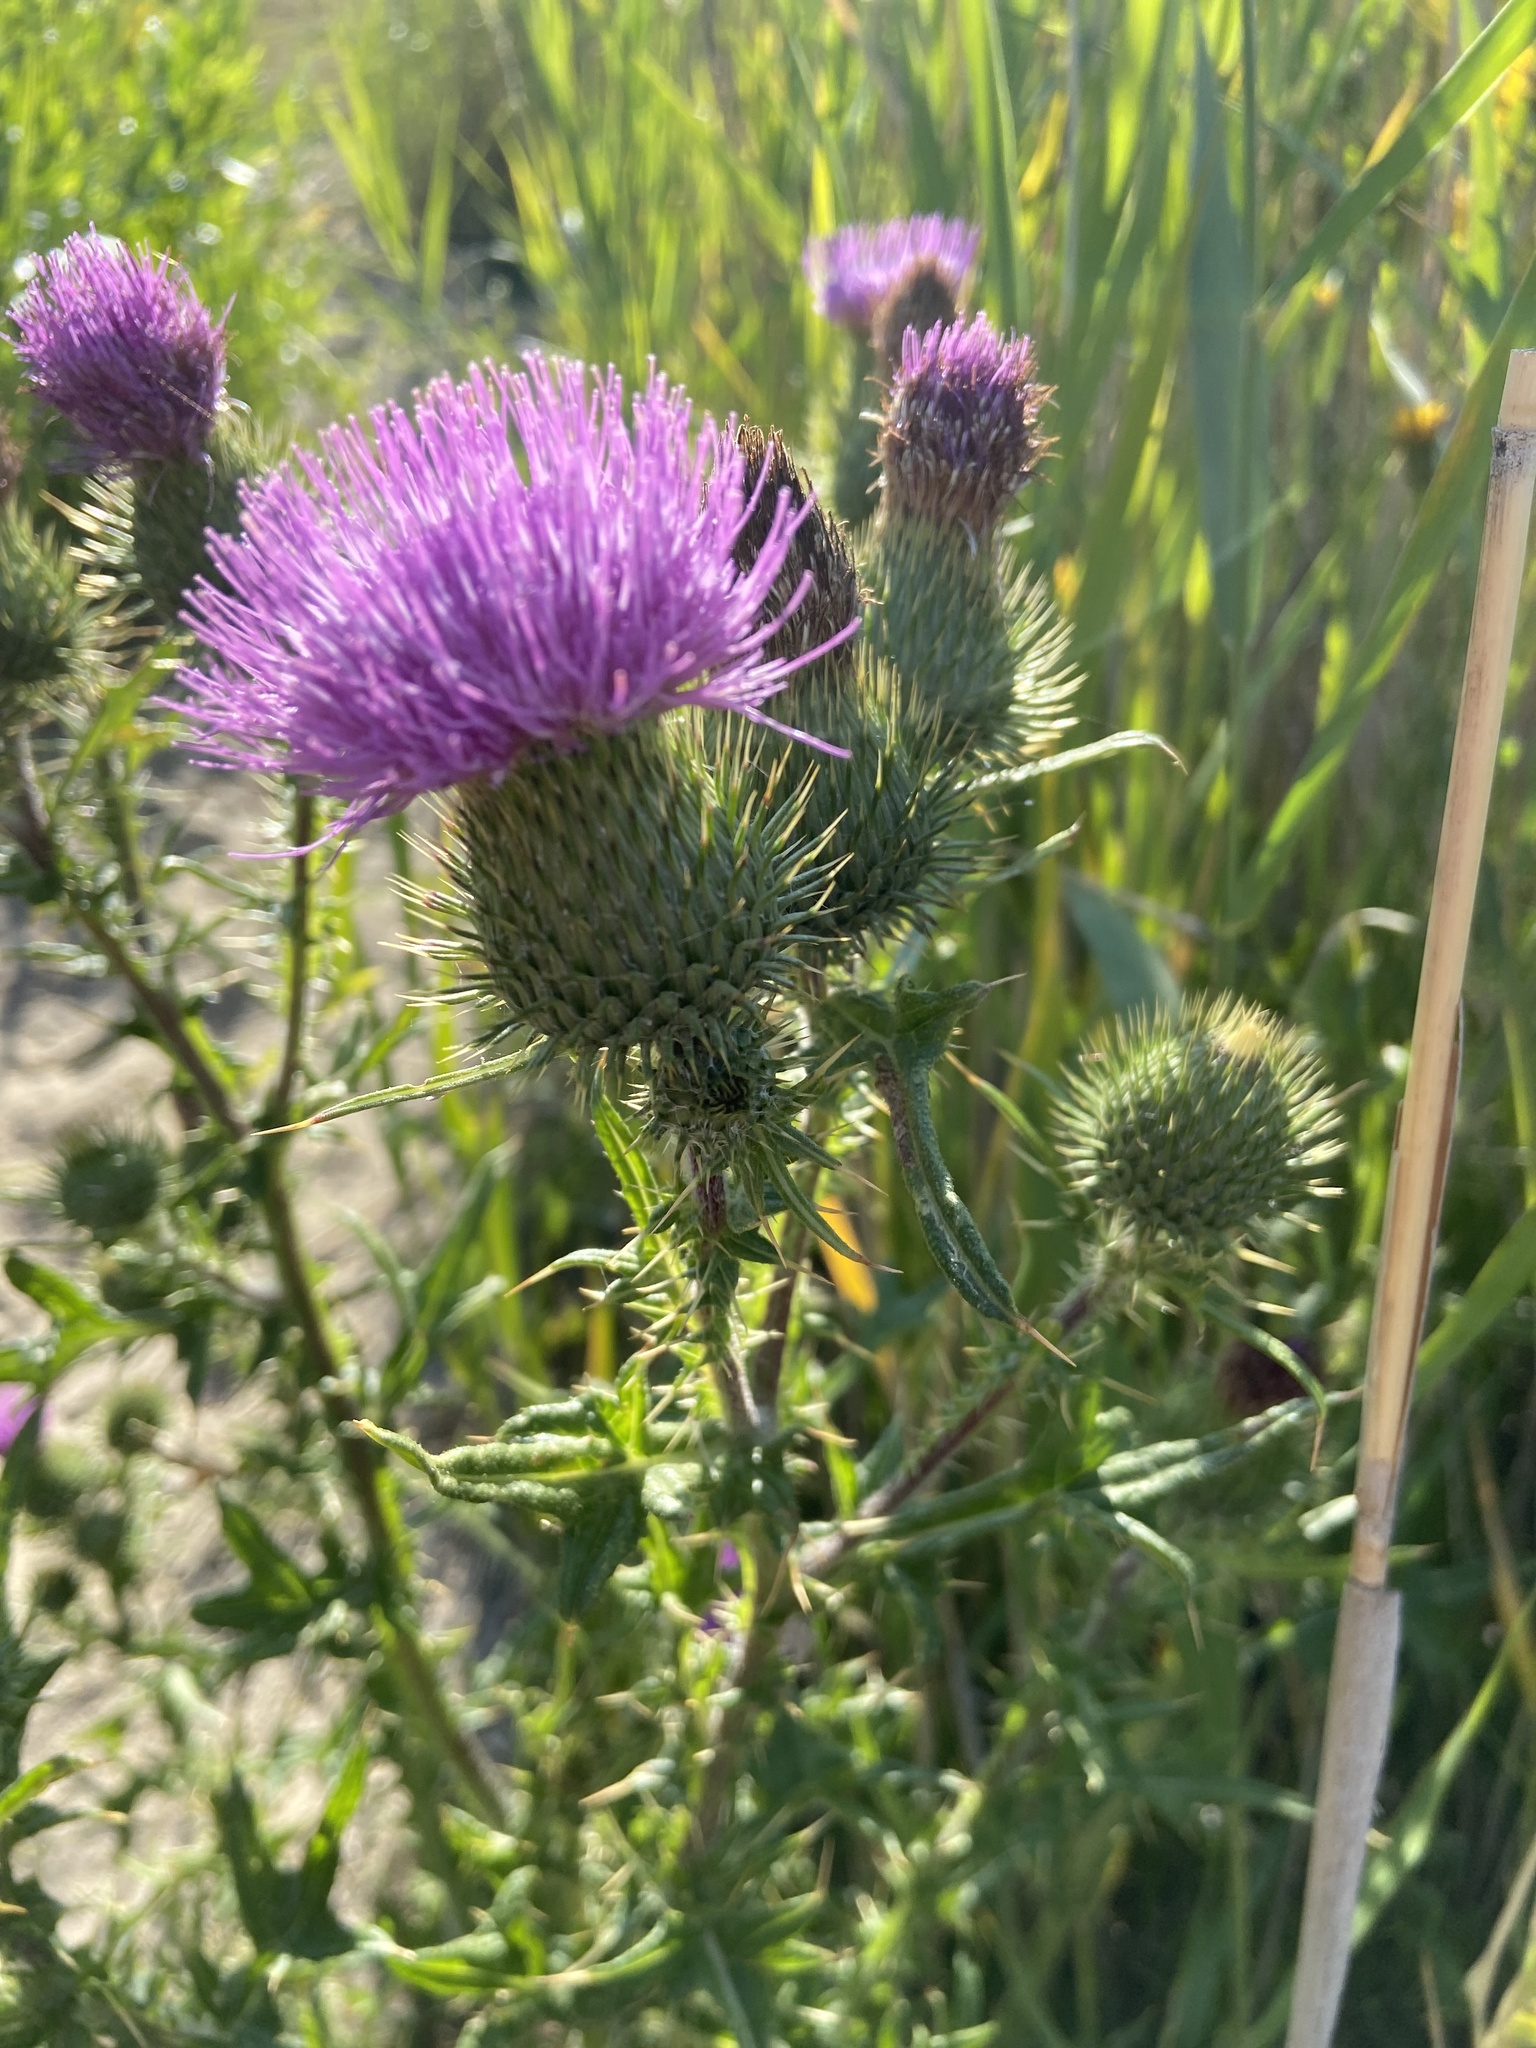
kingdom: Plantae
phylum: Tracheophyta
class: Magnoliopsida
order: Asterales
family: Asteraceae
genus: Cirsium
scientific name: Cirsium vulgare
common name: Bull thistle
